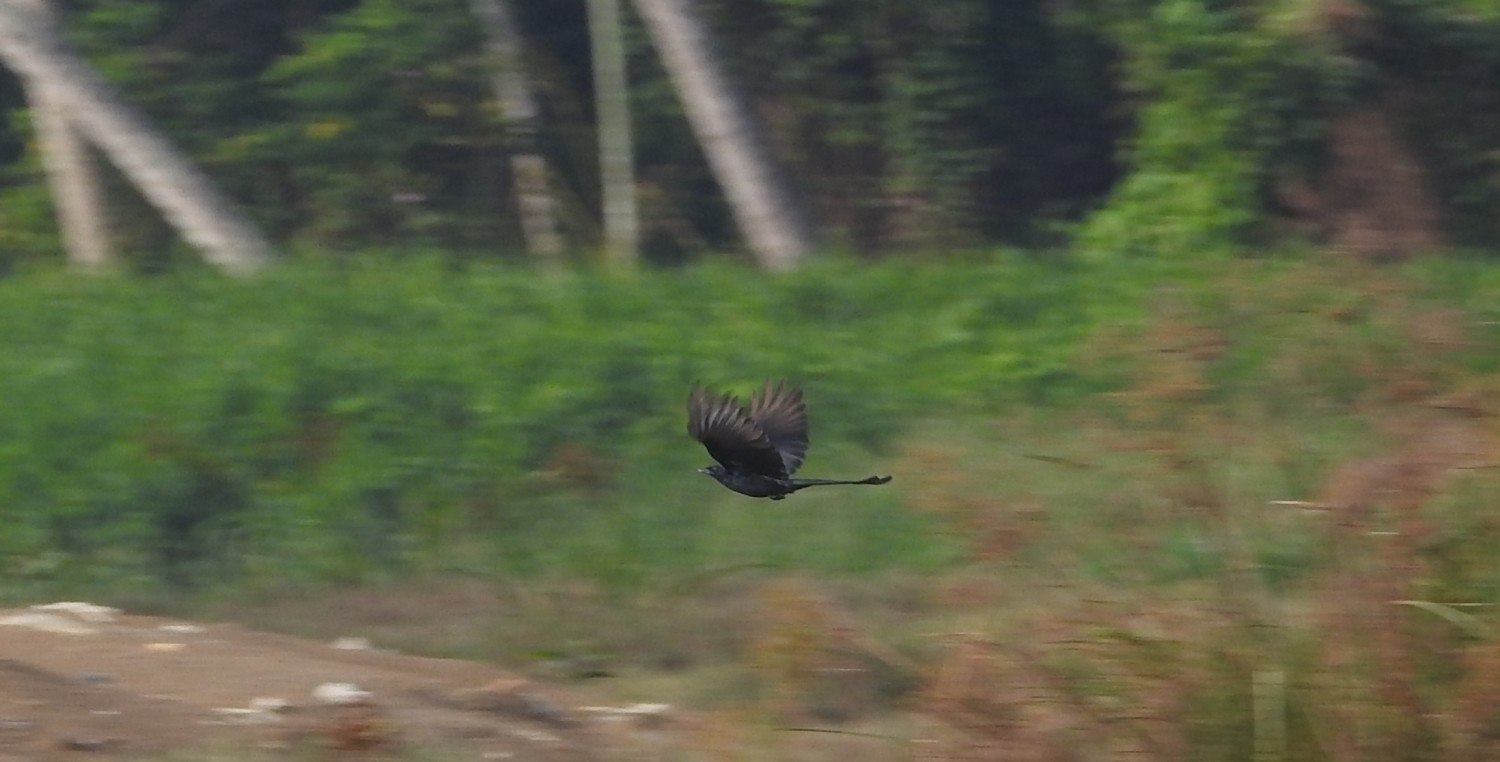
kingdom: Animalia
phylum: Chordata
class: Aves
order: Passeriformes
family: Dicruridae
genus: Dicrurus
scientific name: Dicrurus macrocercus
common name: Black drongo
